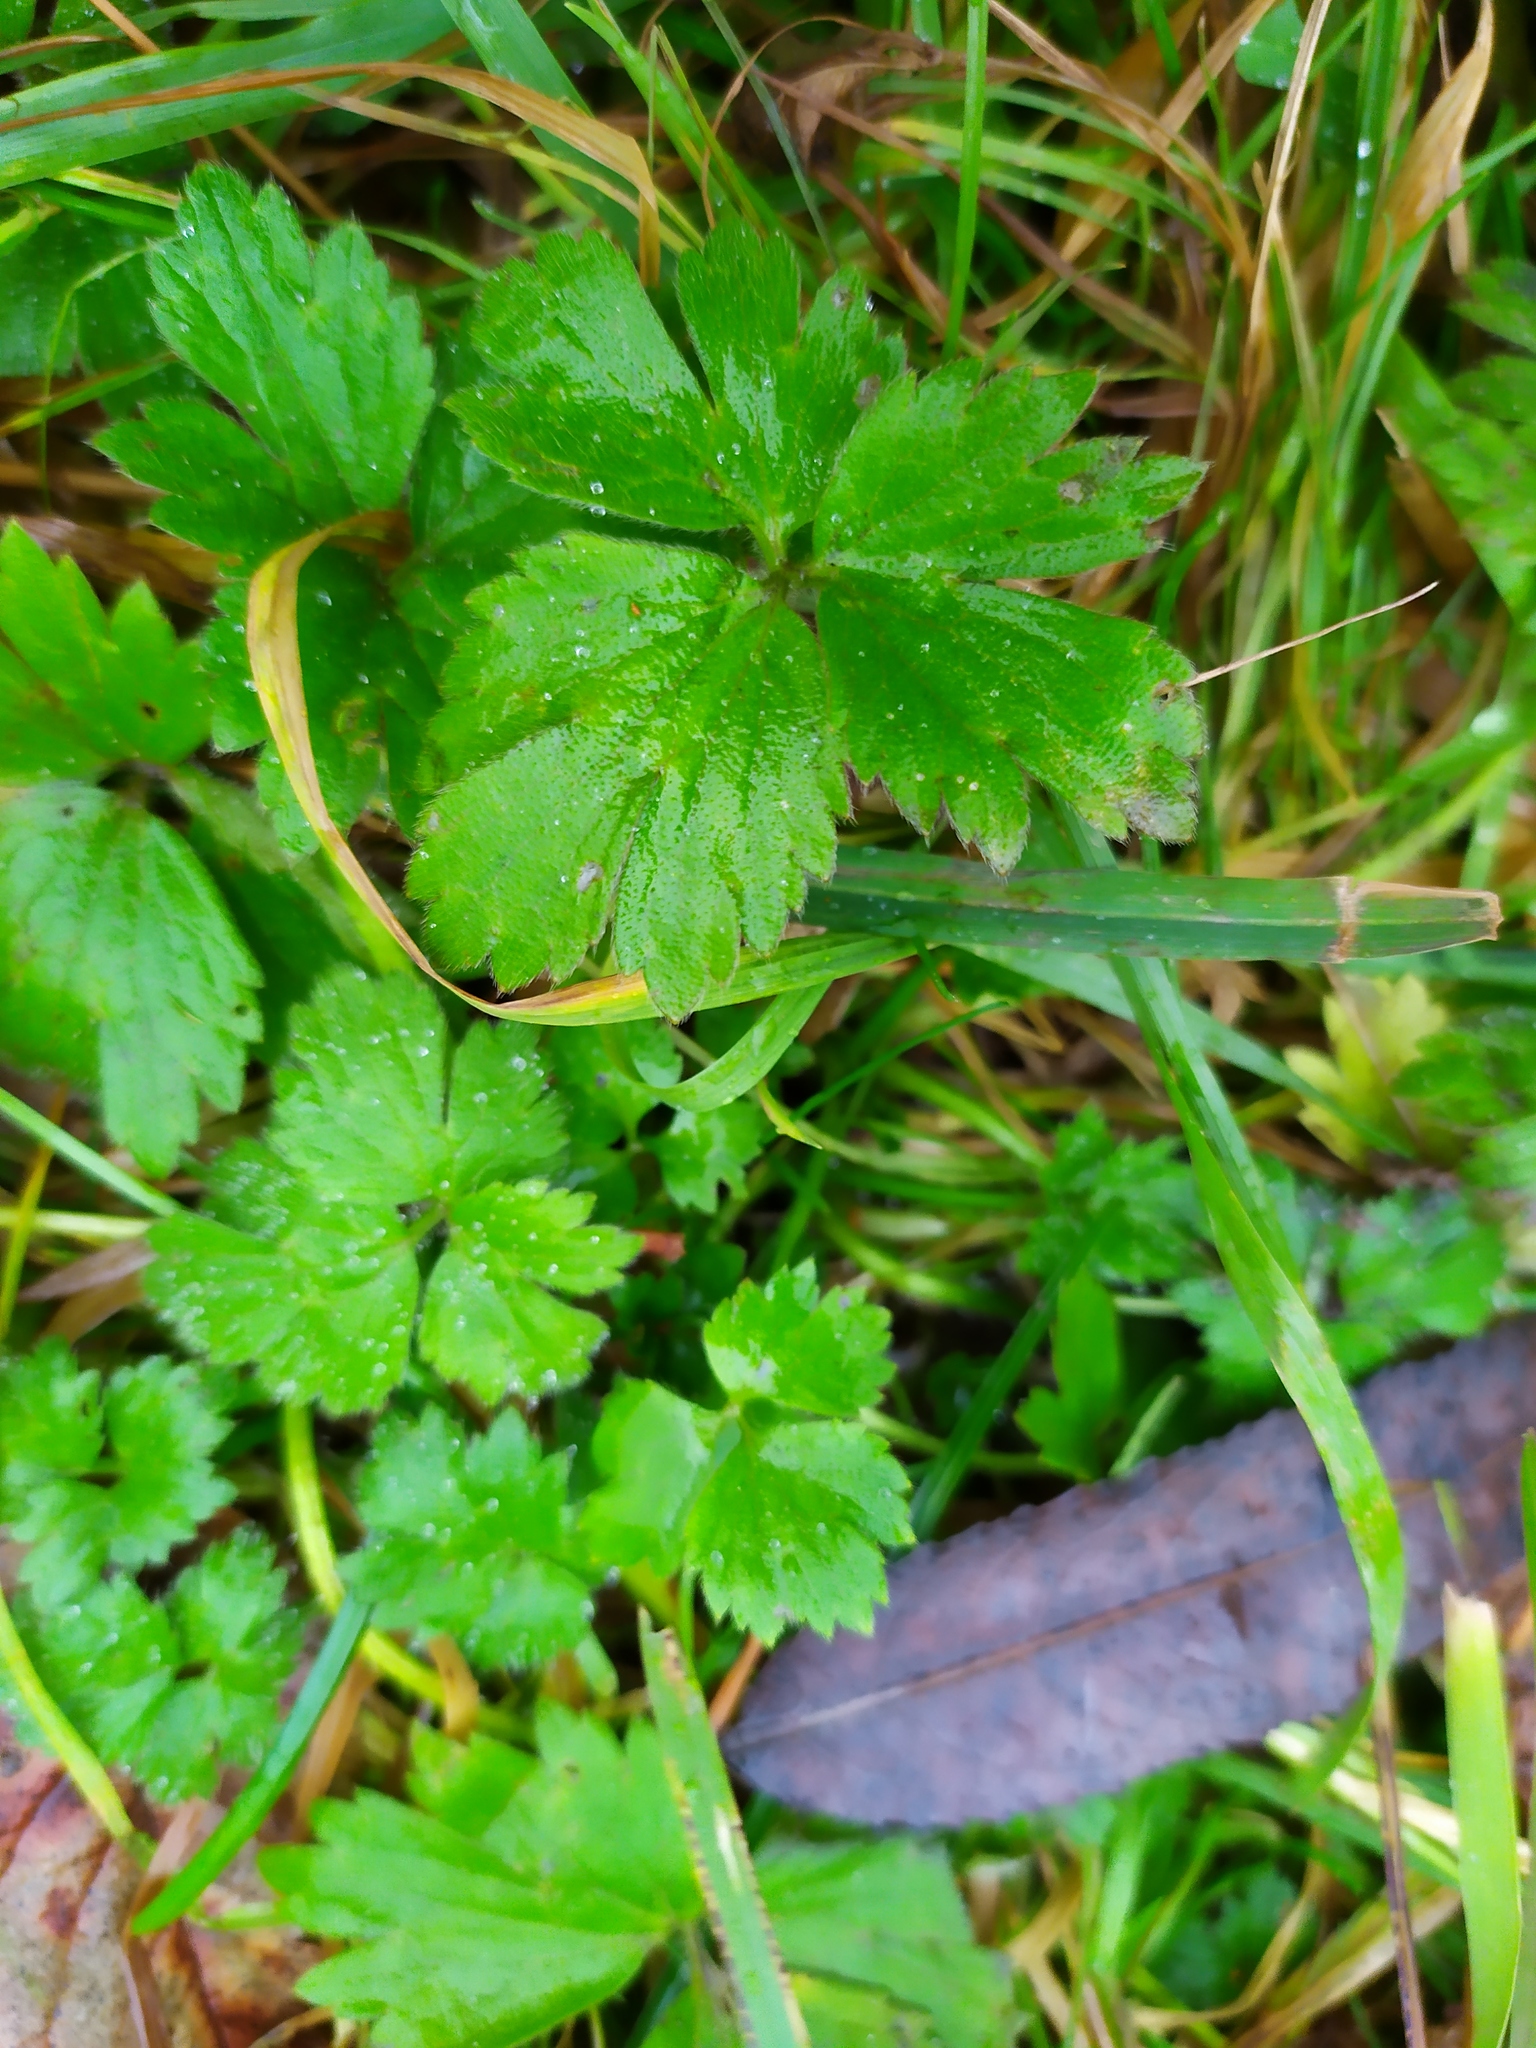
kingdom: Plantae
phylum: Tracheophyta
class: Magnoliopsida
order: Ranunculales
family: Ranunculaceae
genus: Ranunculus
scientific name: Ranunculus repens
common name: Creeping buttercup
